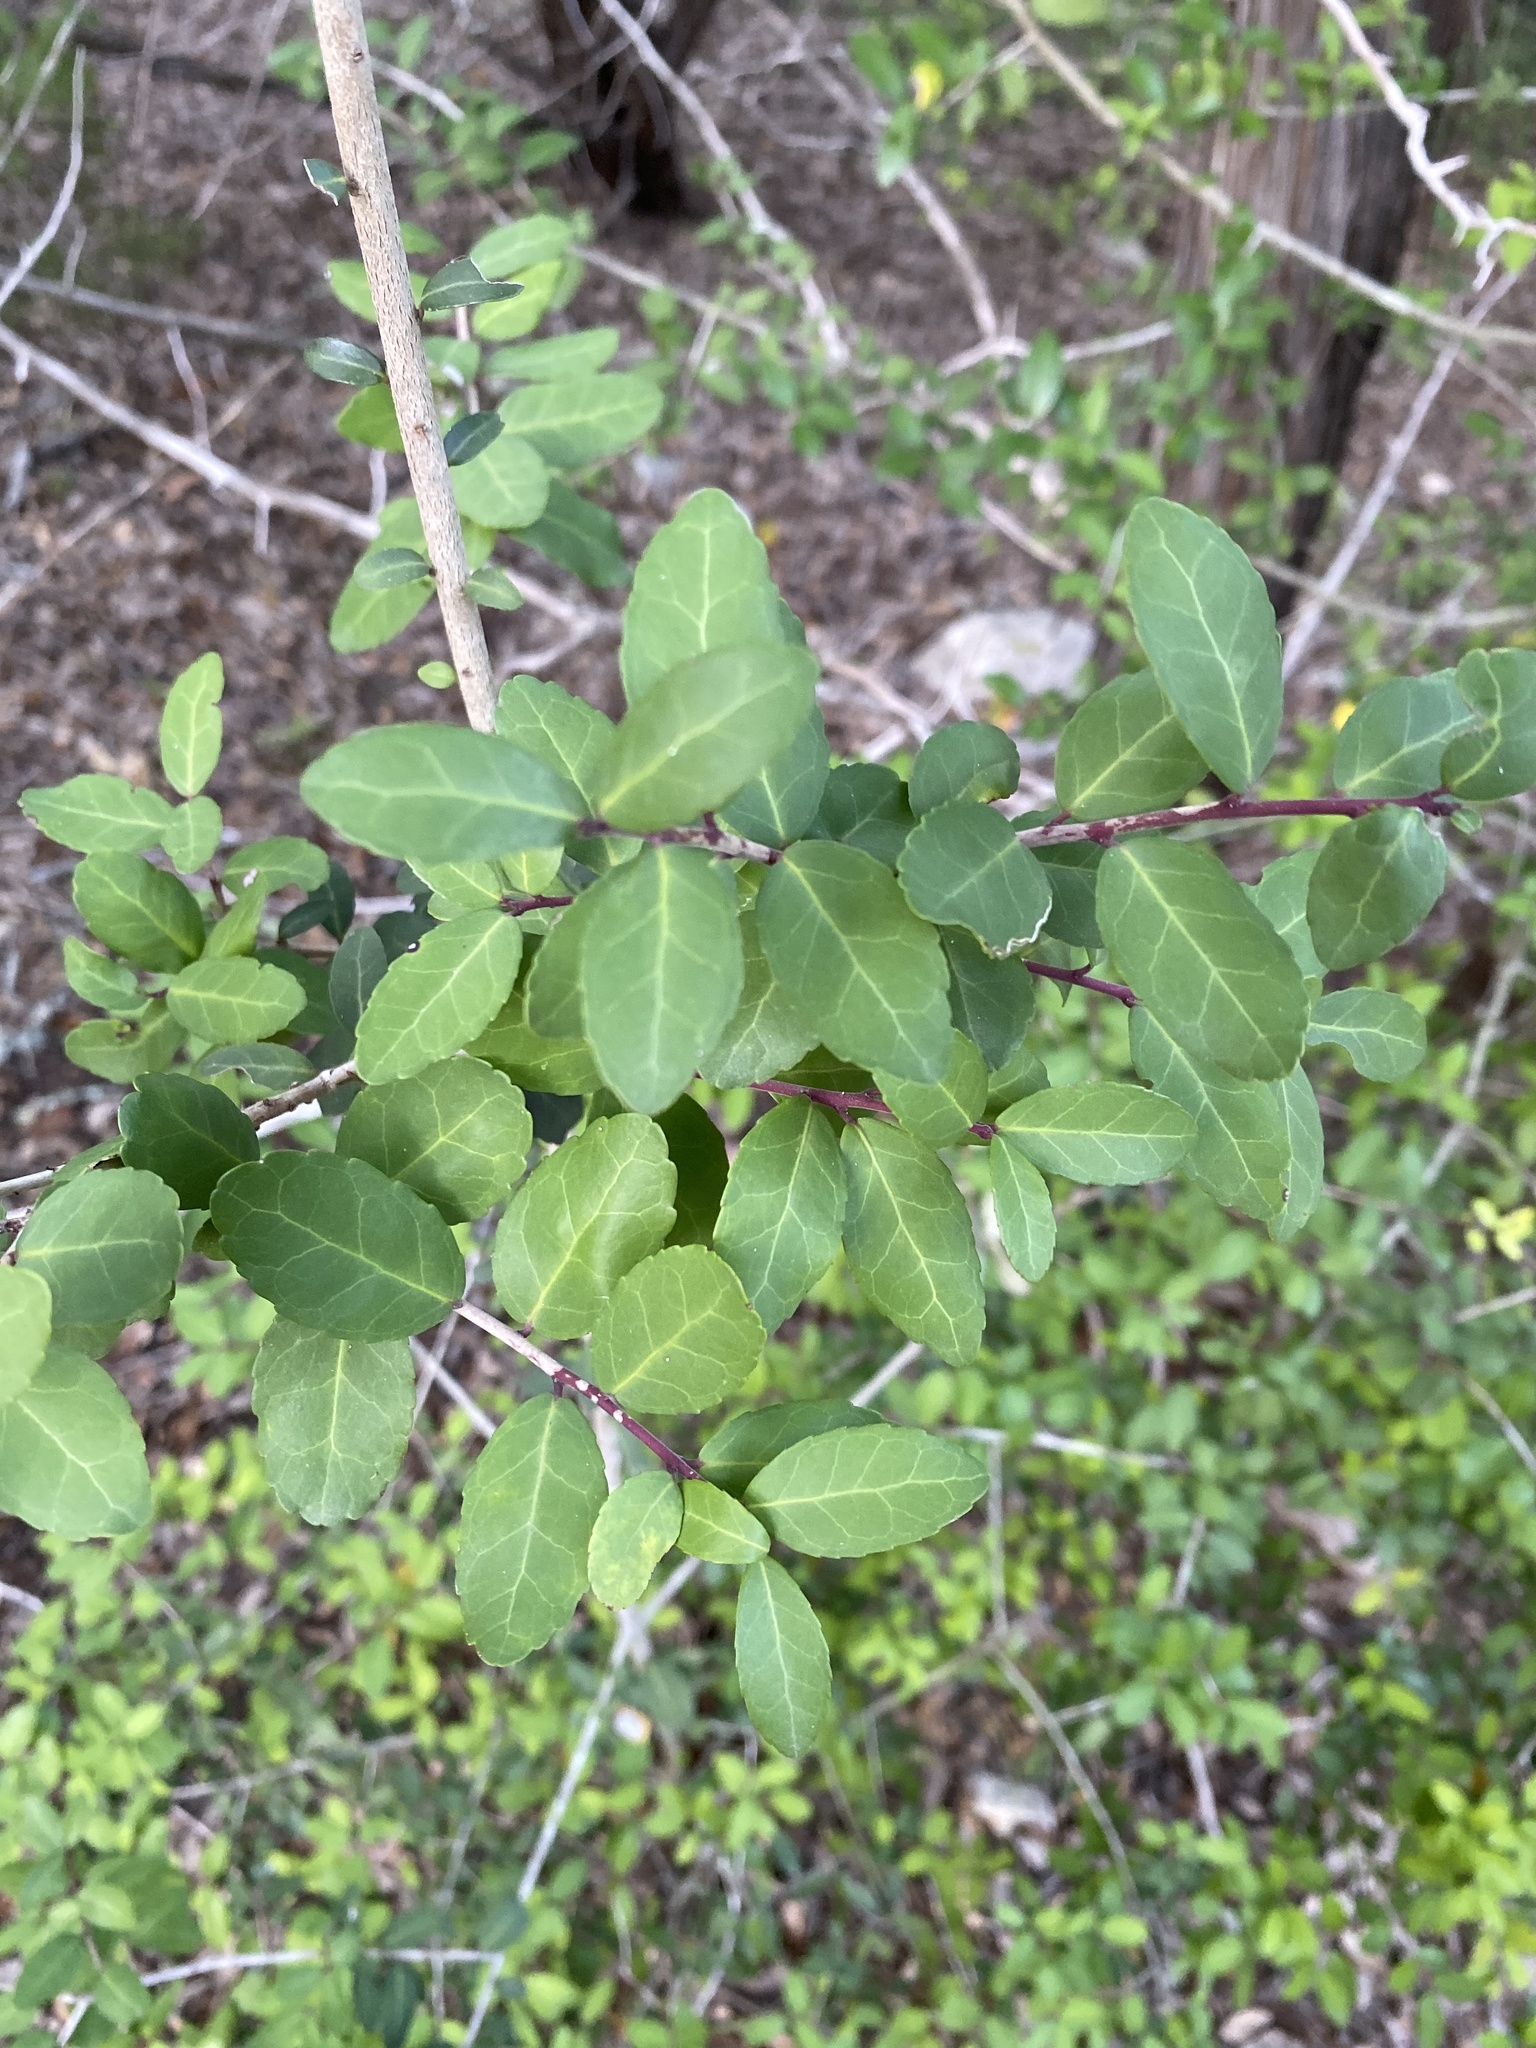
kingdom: Plantae
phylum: Tracheophyta
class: Magnoliopsida
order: Aquifoliales
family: Aquifoliaceae
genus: Ilex
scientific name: Ilex vomitoria
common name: Yaupon holly
